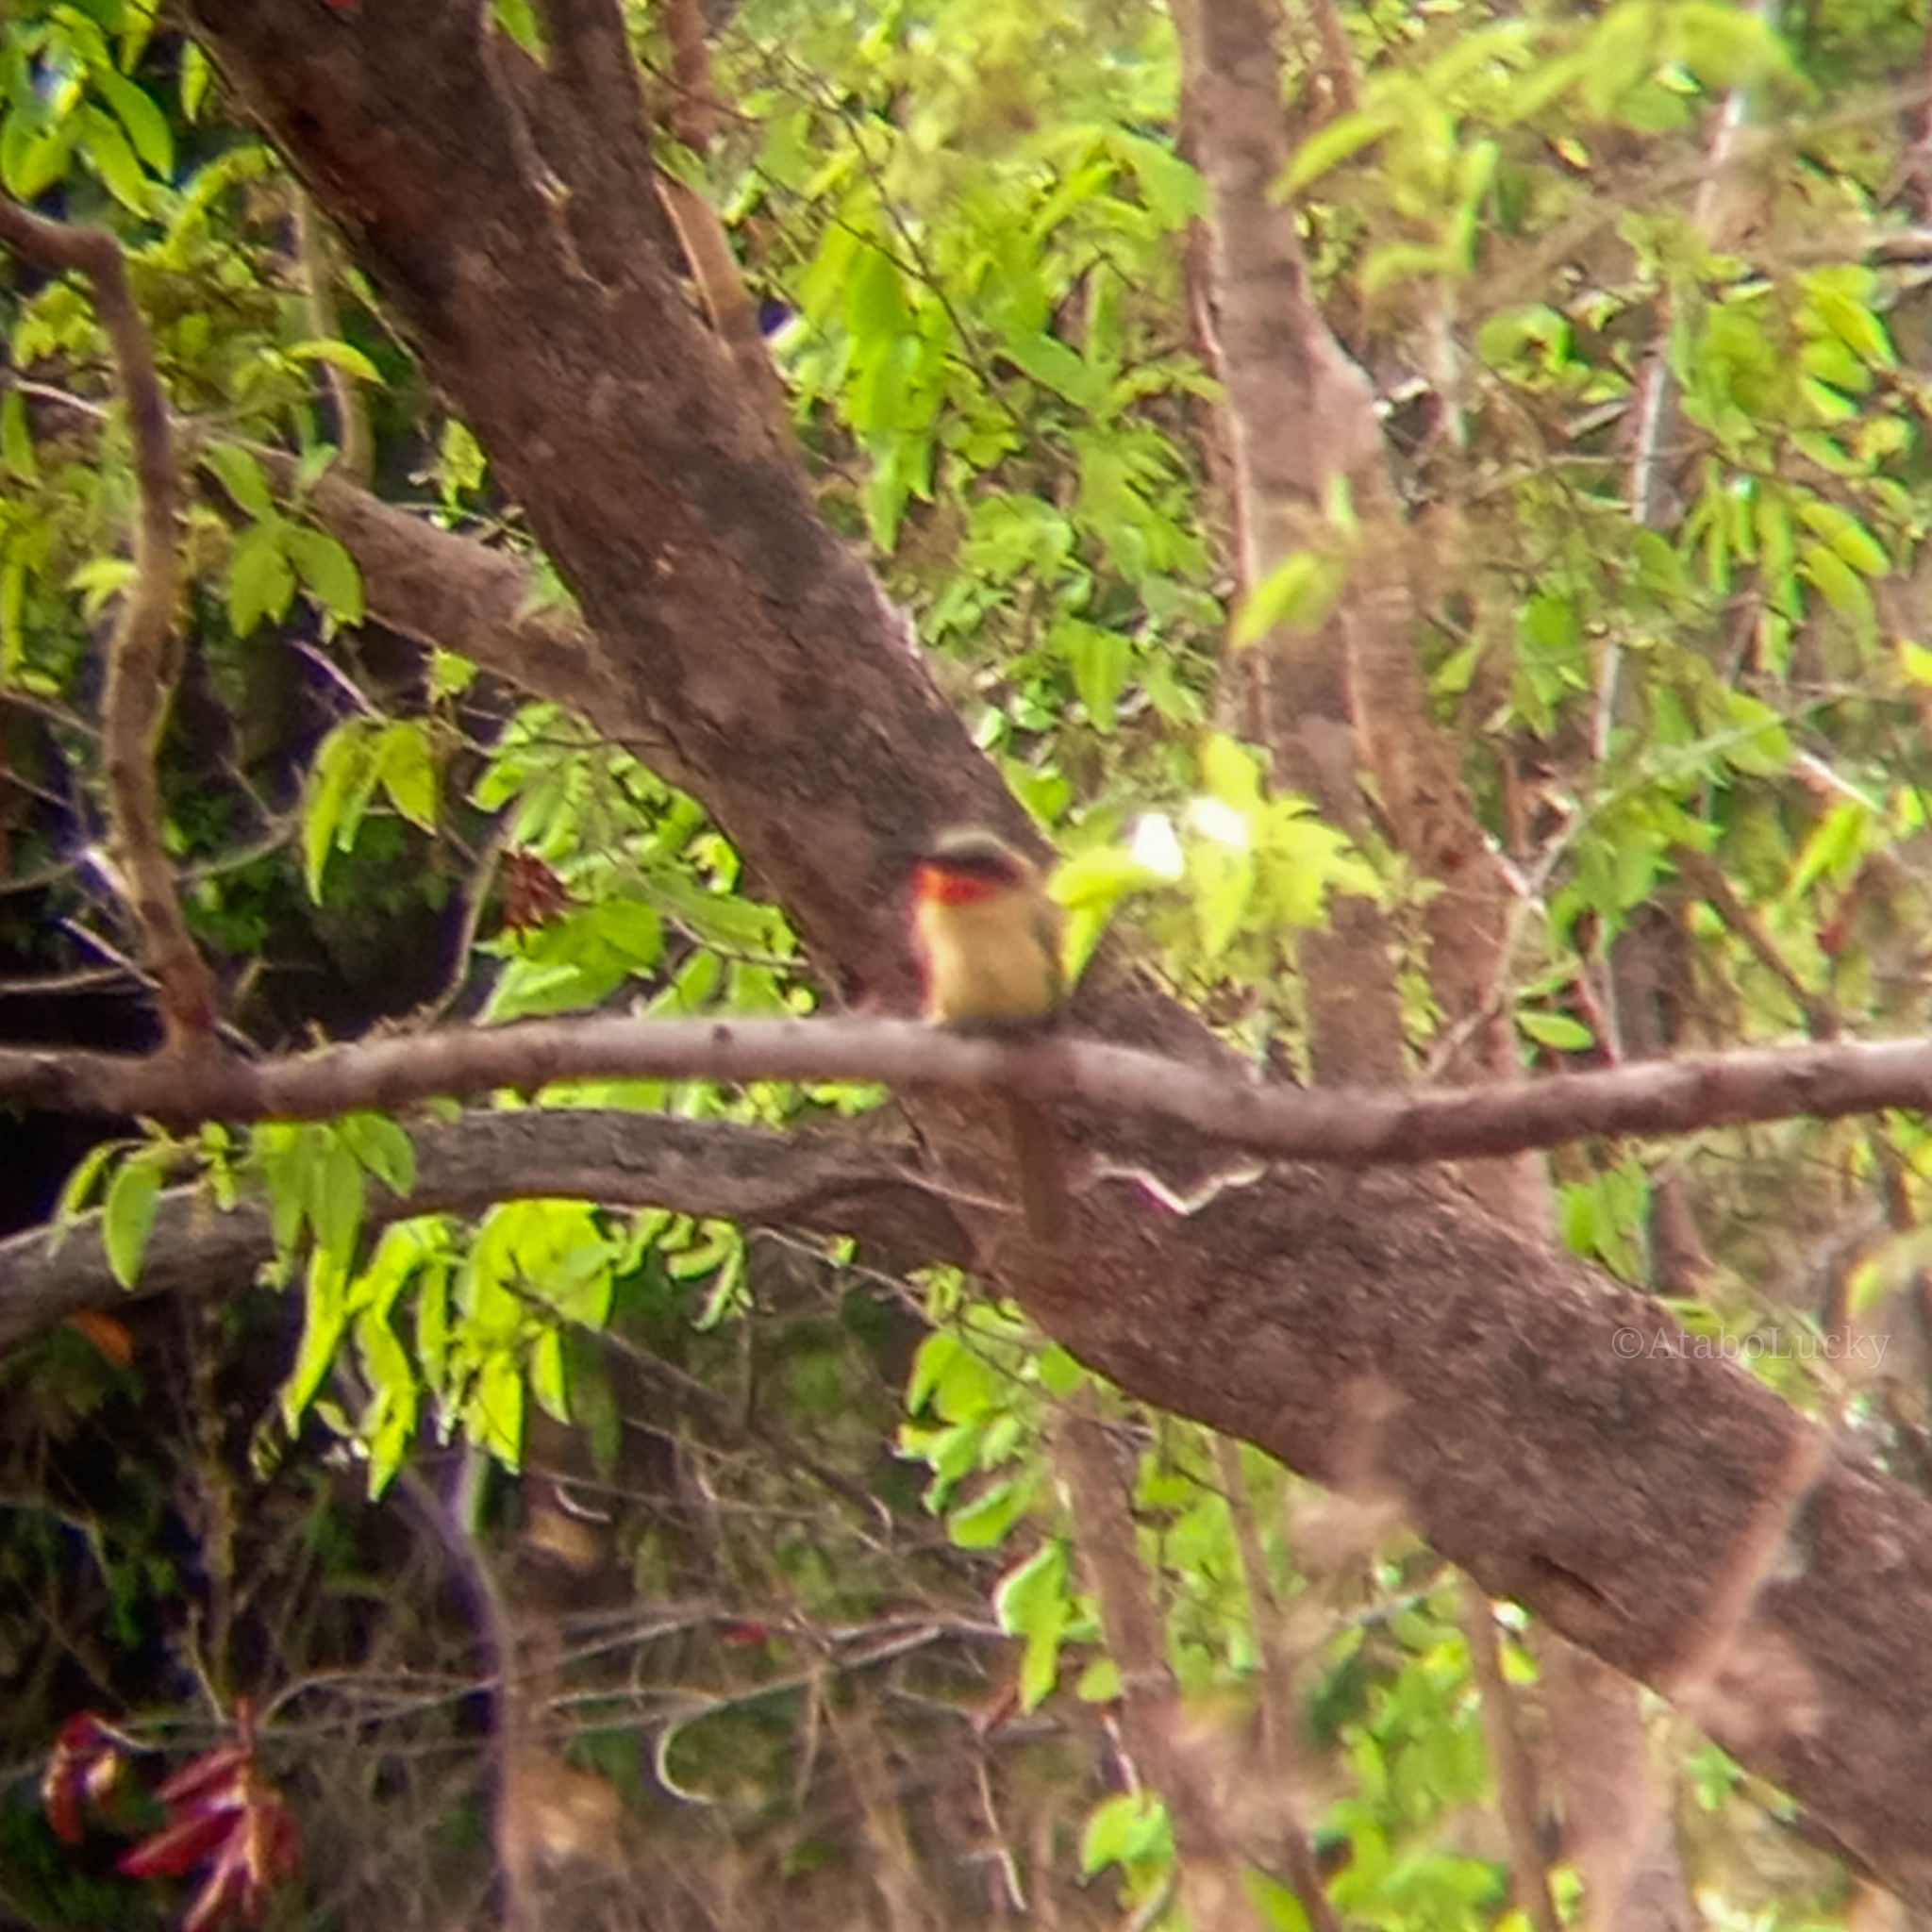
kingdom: Animalia
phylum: Chordata
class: Aves
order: Coraciiformes
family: Meropidae
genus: Merops
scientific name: Merops bulocki
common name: Red-throated bee-eater
